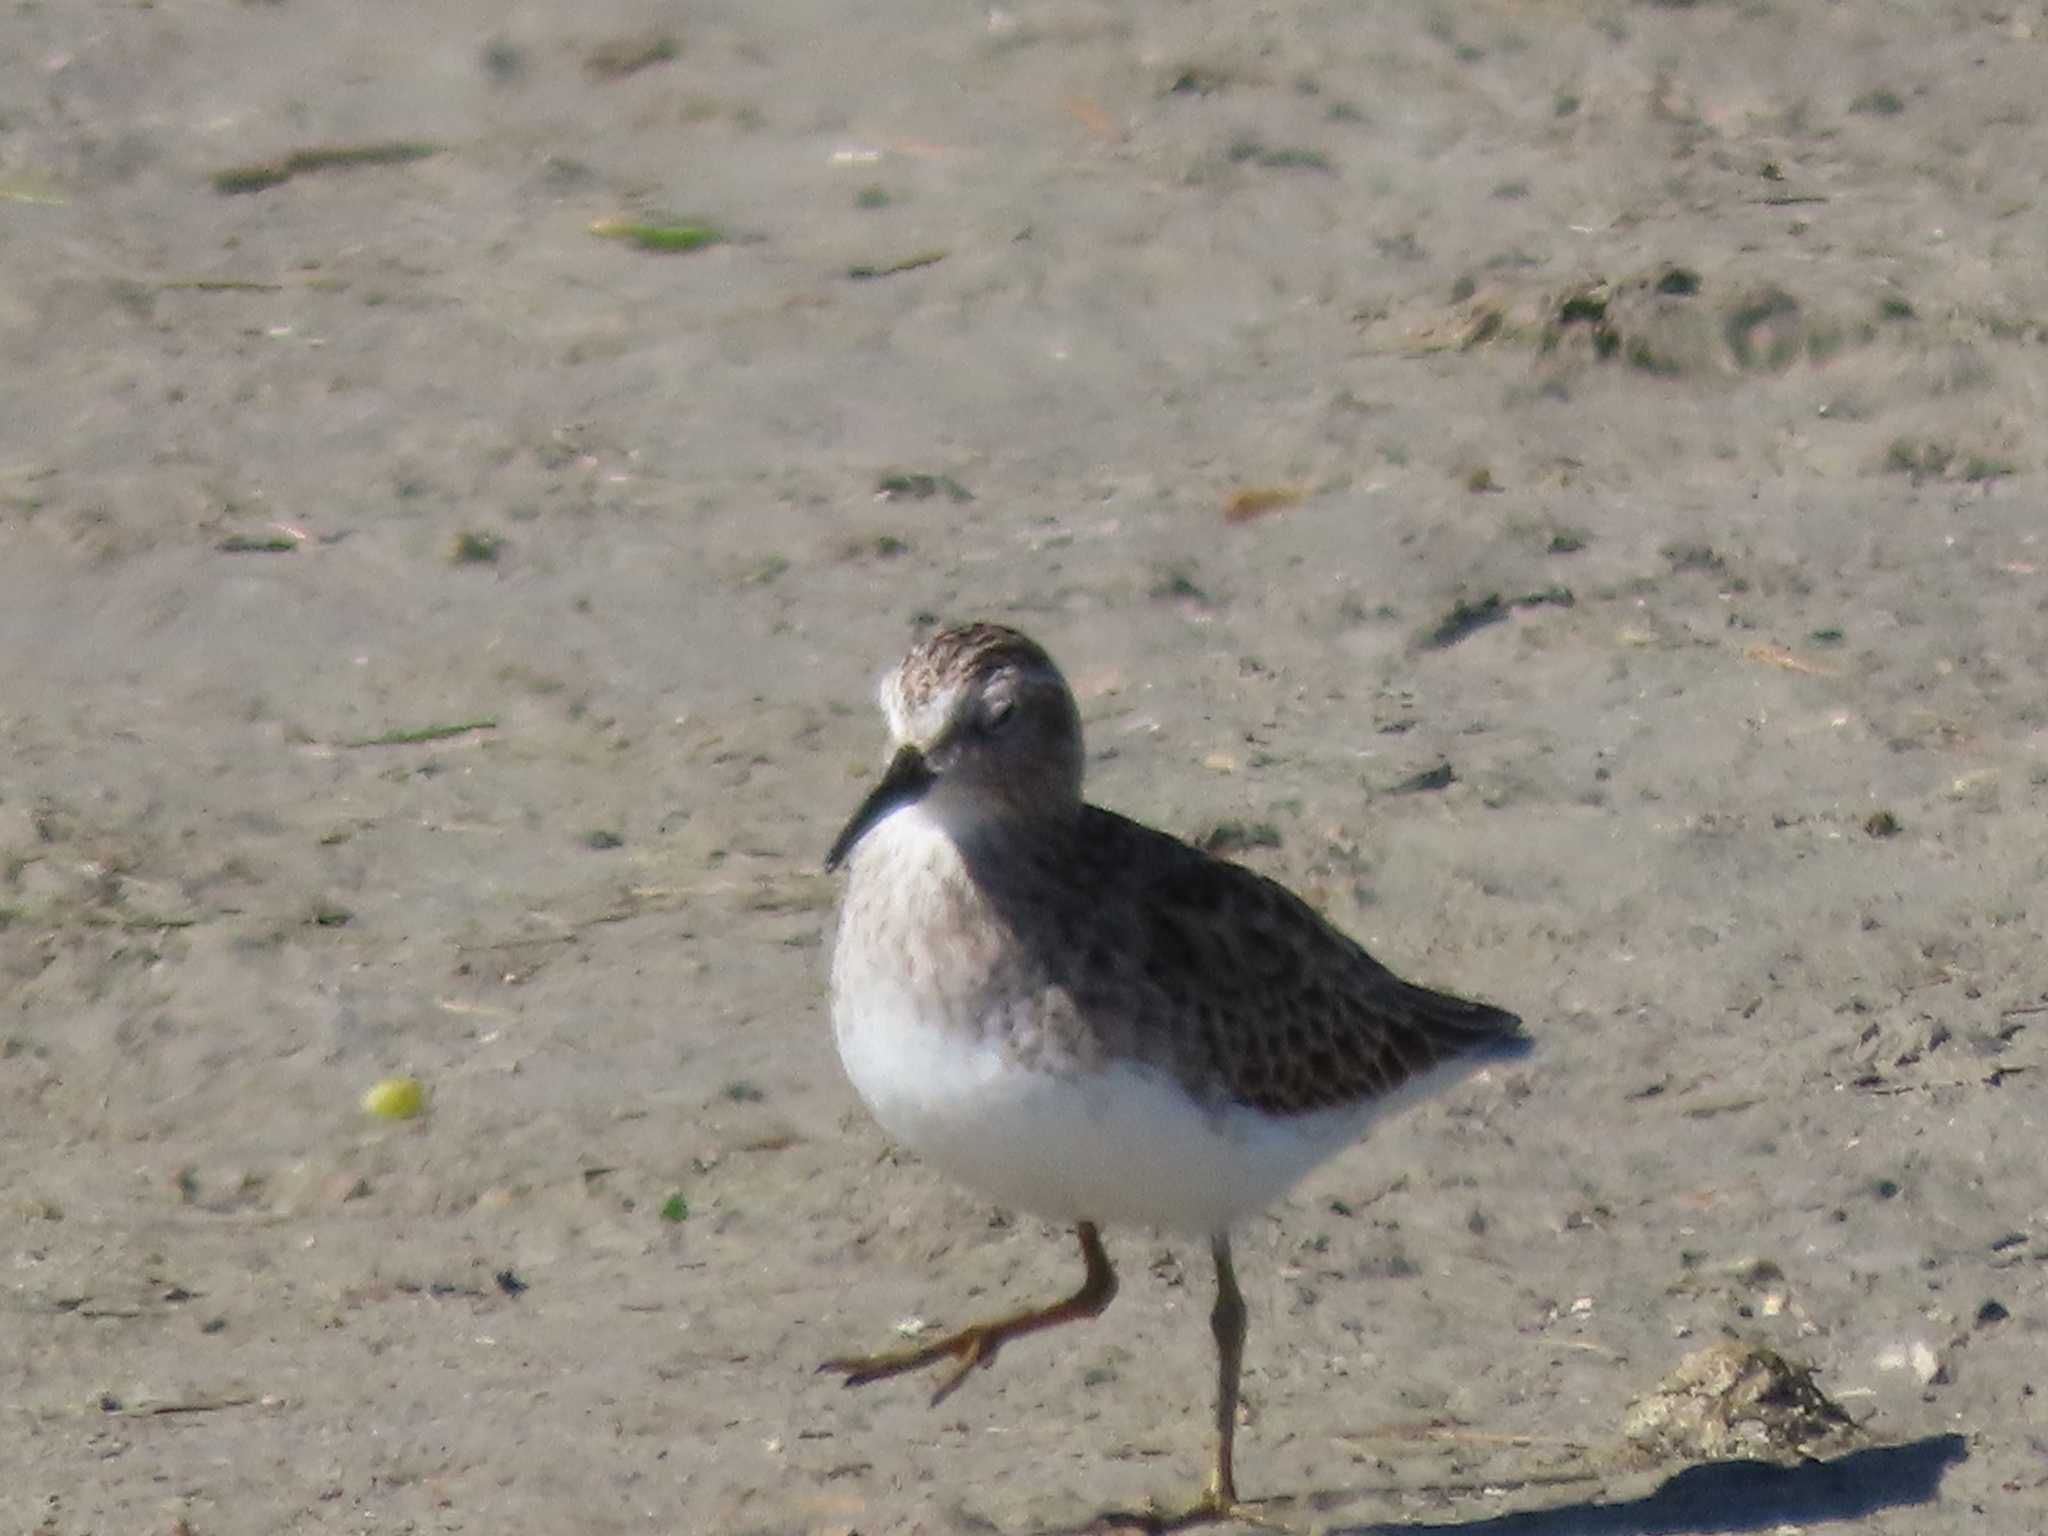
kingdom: Animalia
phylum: Chordata
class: Aves
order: Charadriiformes
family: Scolopacidae
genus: Calidris
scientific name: Calidris minutilla
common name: Least sandpiper
